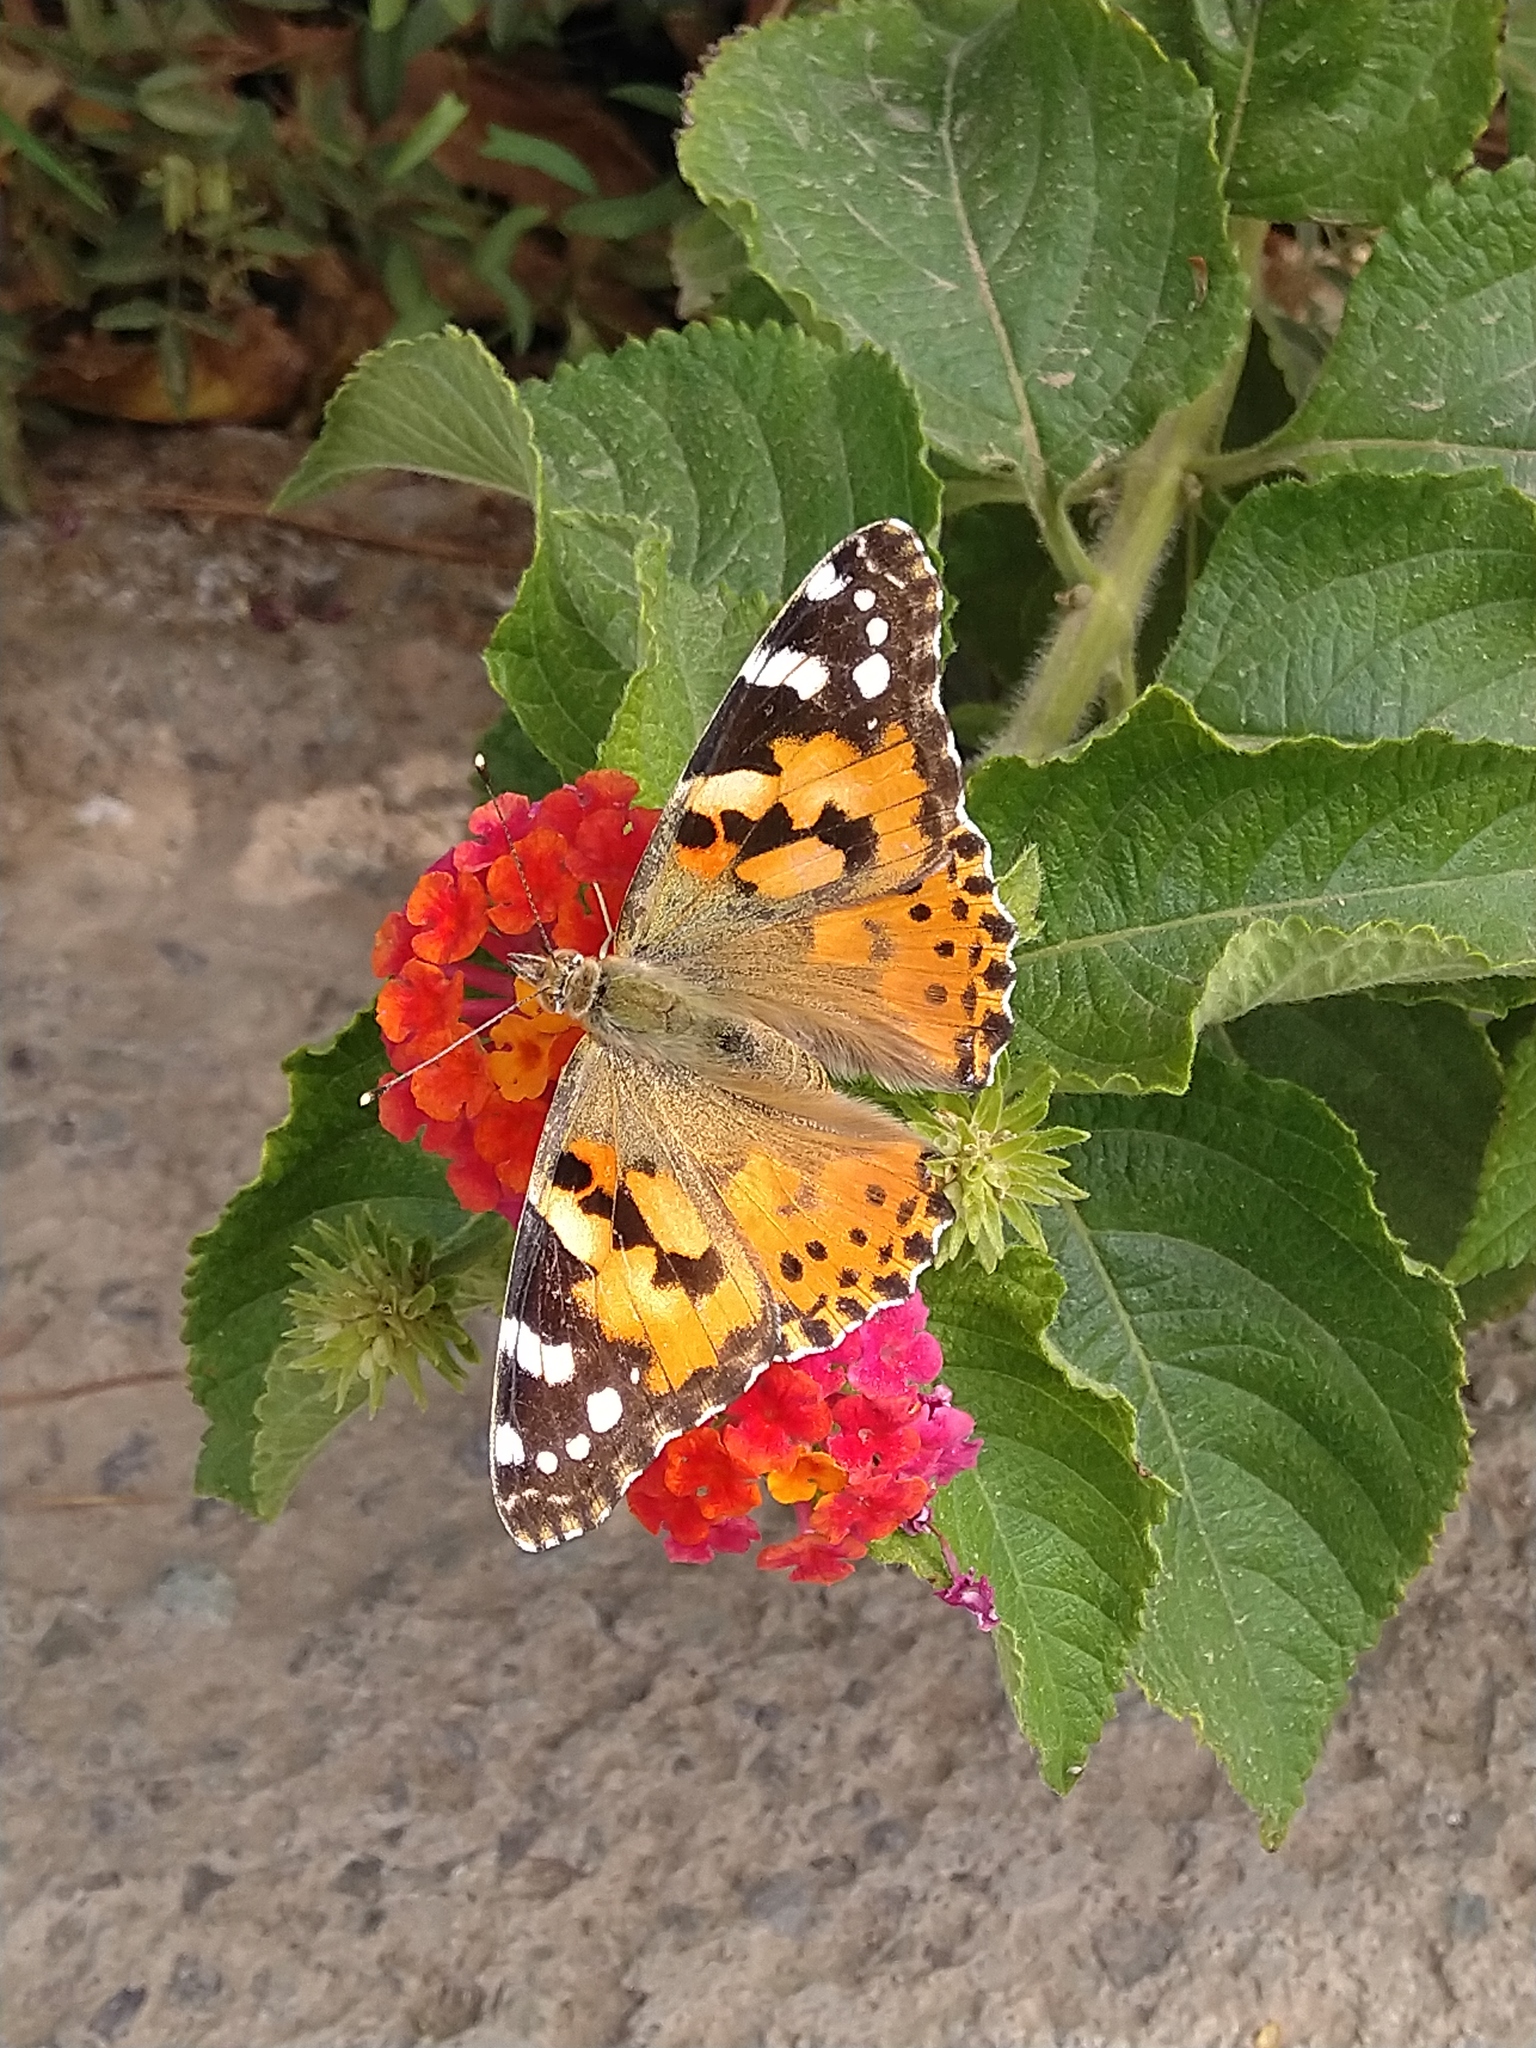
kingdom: Animalia
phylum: Arthropoda
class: Insecta
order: Lepidoptera
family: Nymphalidae
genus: Vanessa
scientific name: Vanessa cardui
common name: Painted lady
